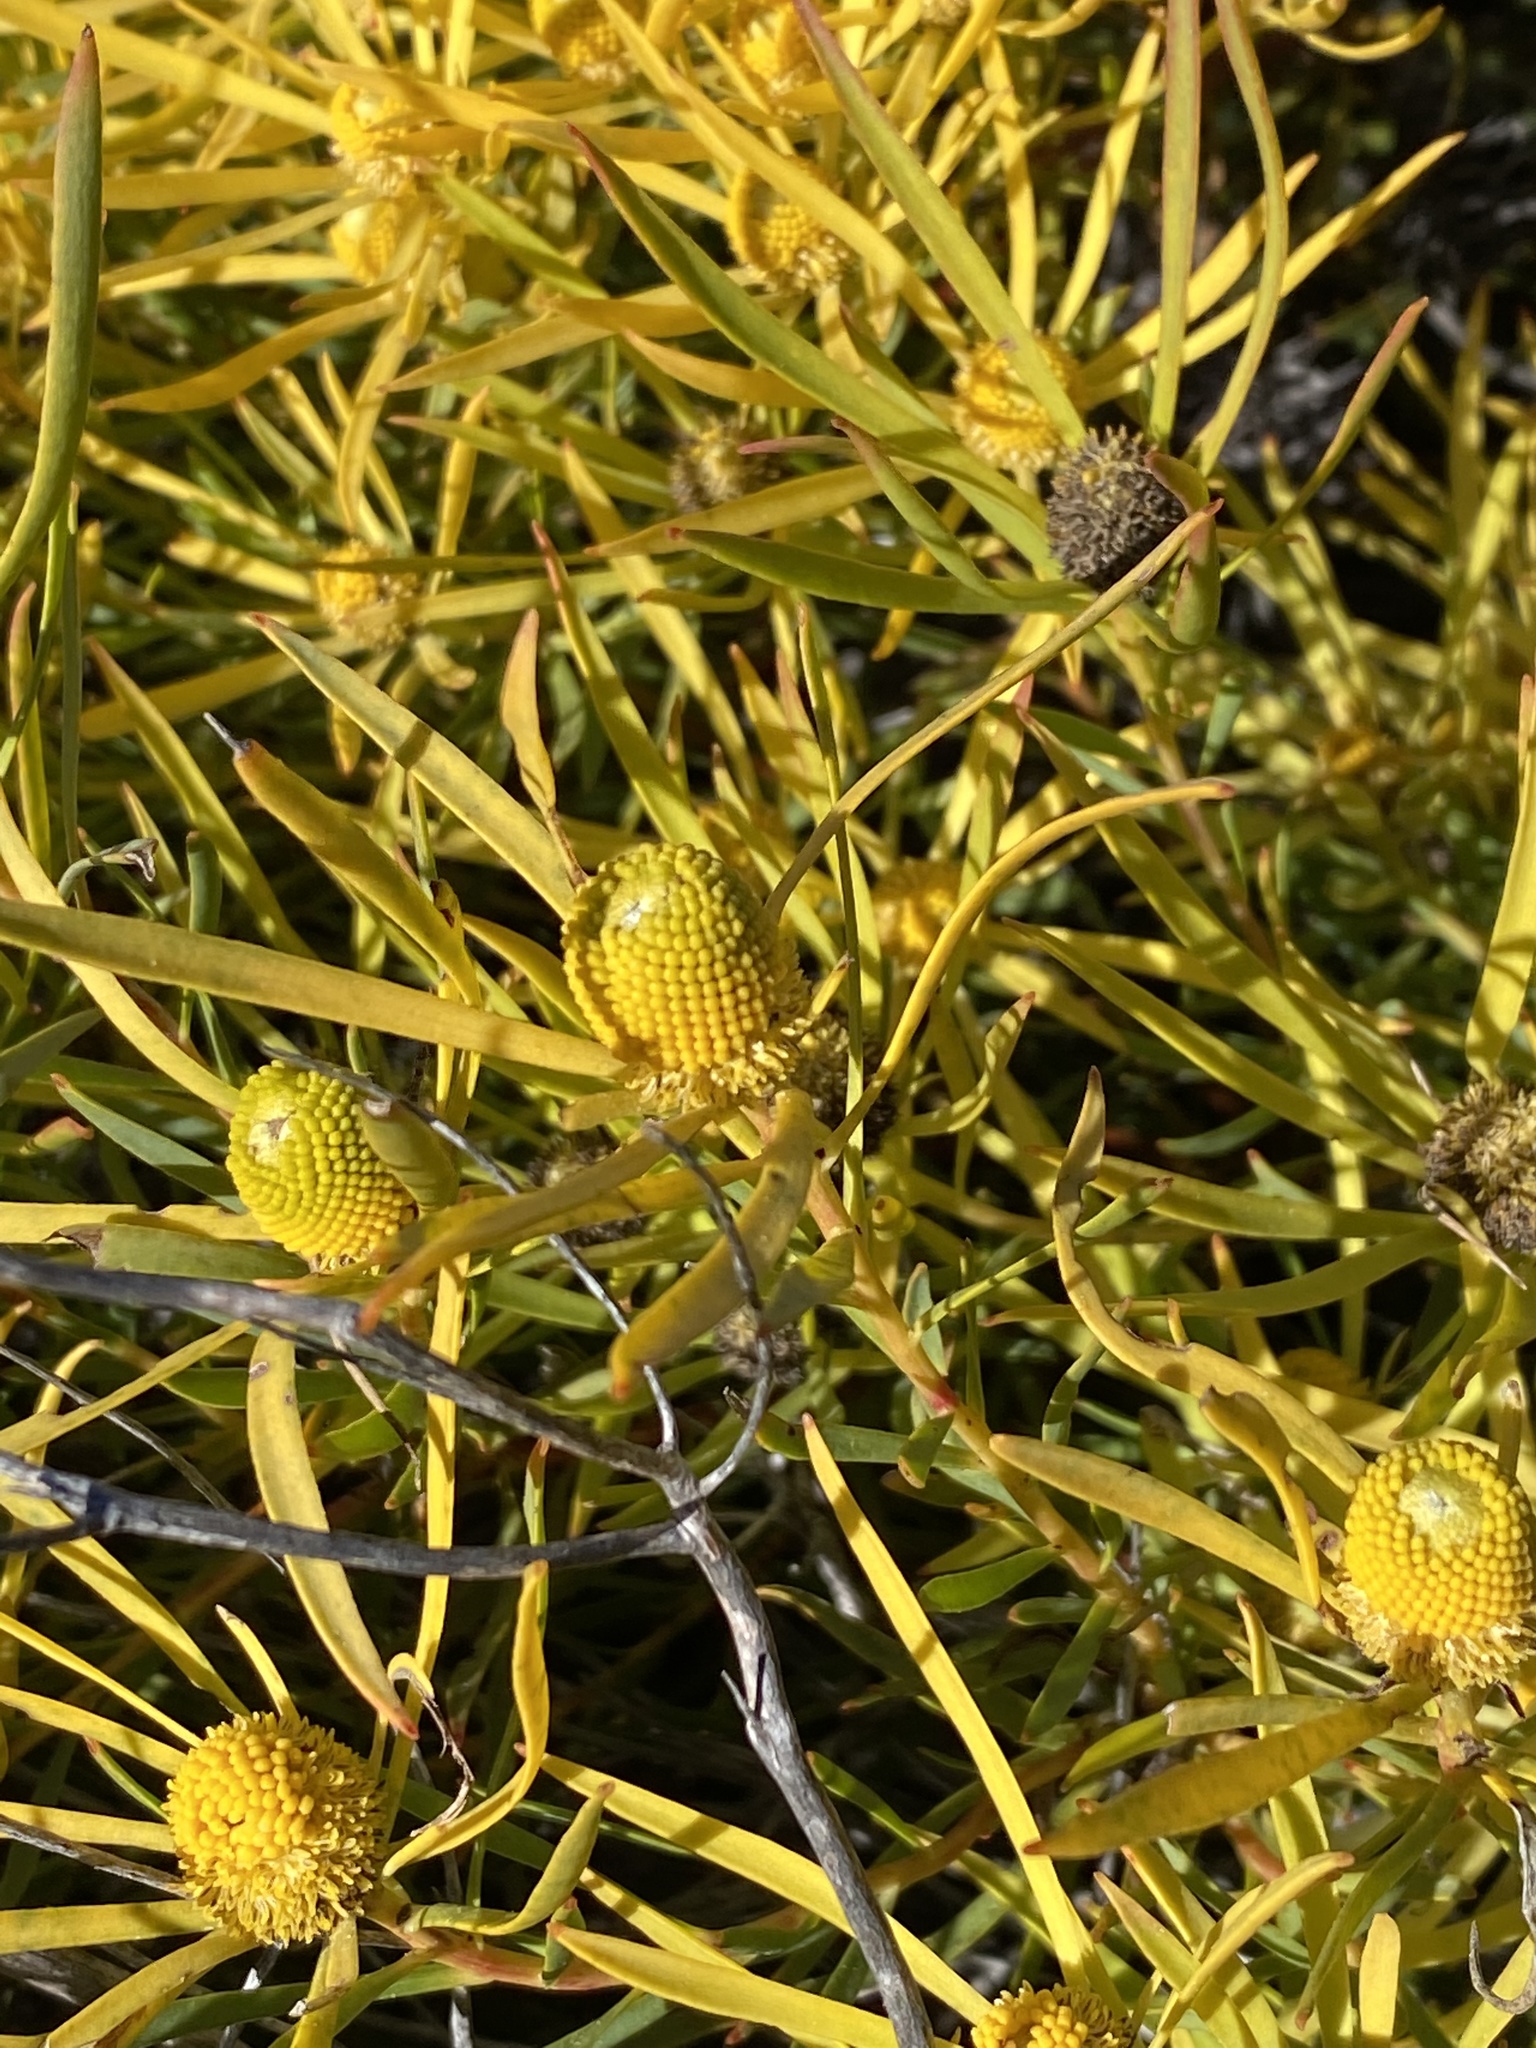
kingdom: Plantae
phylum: Tracheophyta
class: Magnoliopsida
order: Proteales
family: Proteaceae
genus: Leucadendron
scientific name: Leucadendron salignum
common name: Common sunshine conebush
